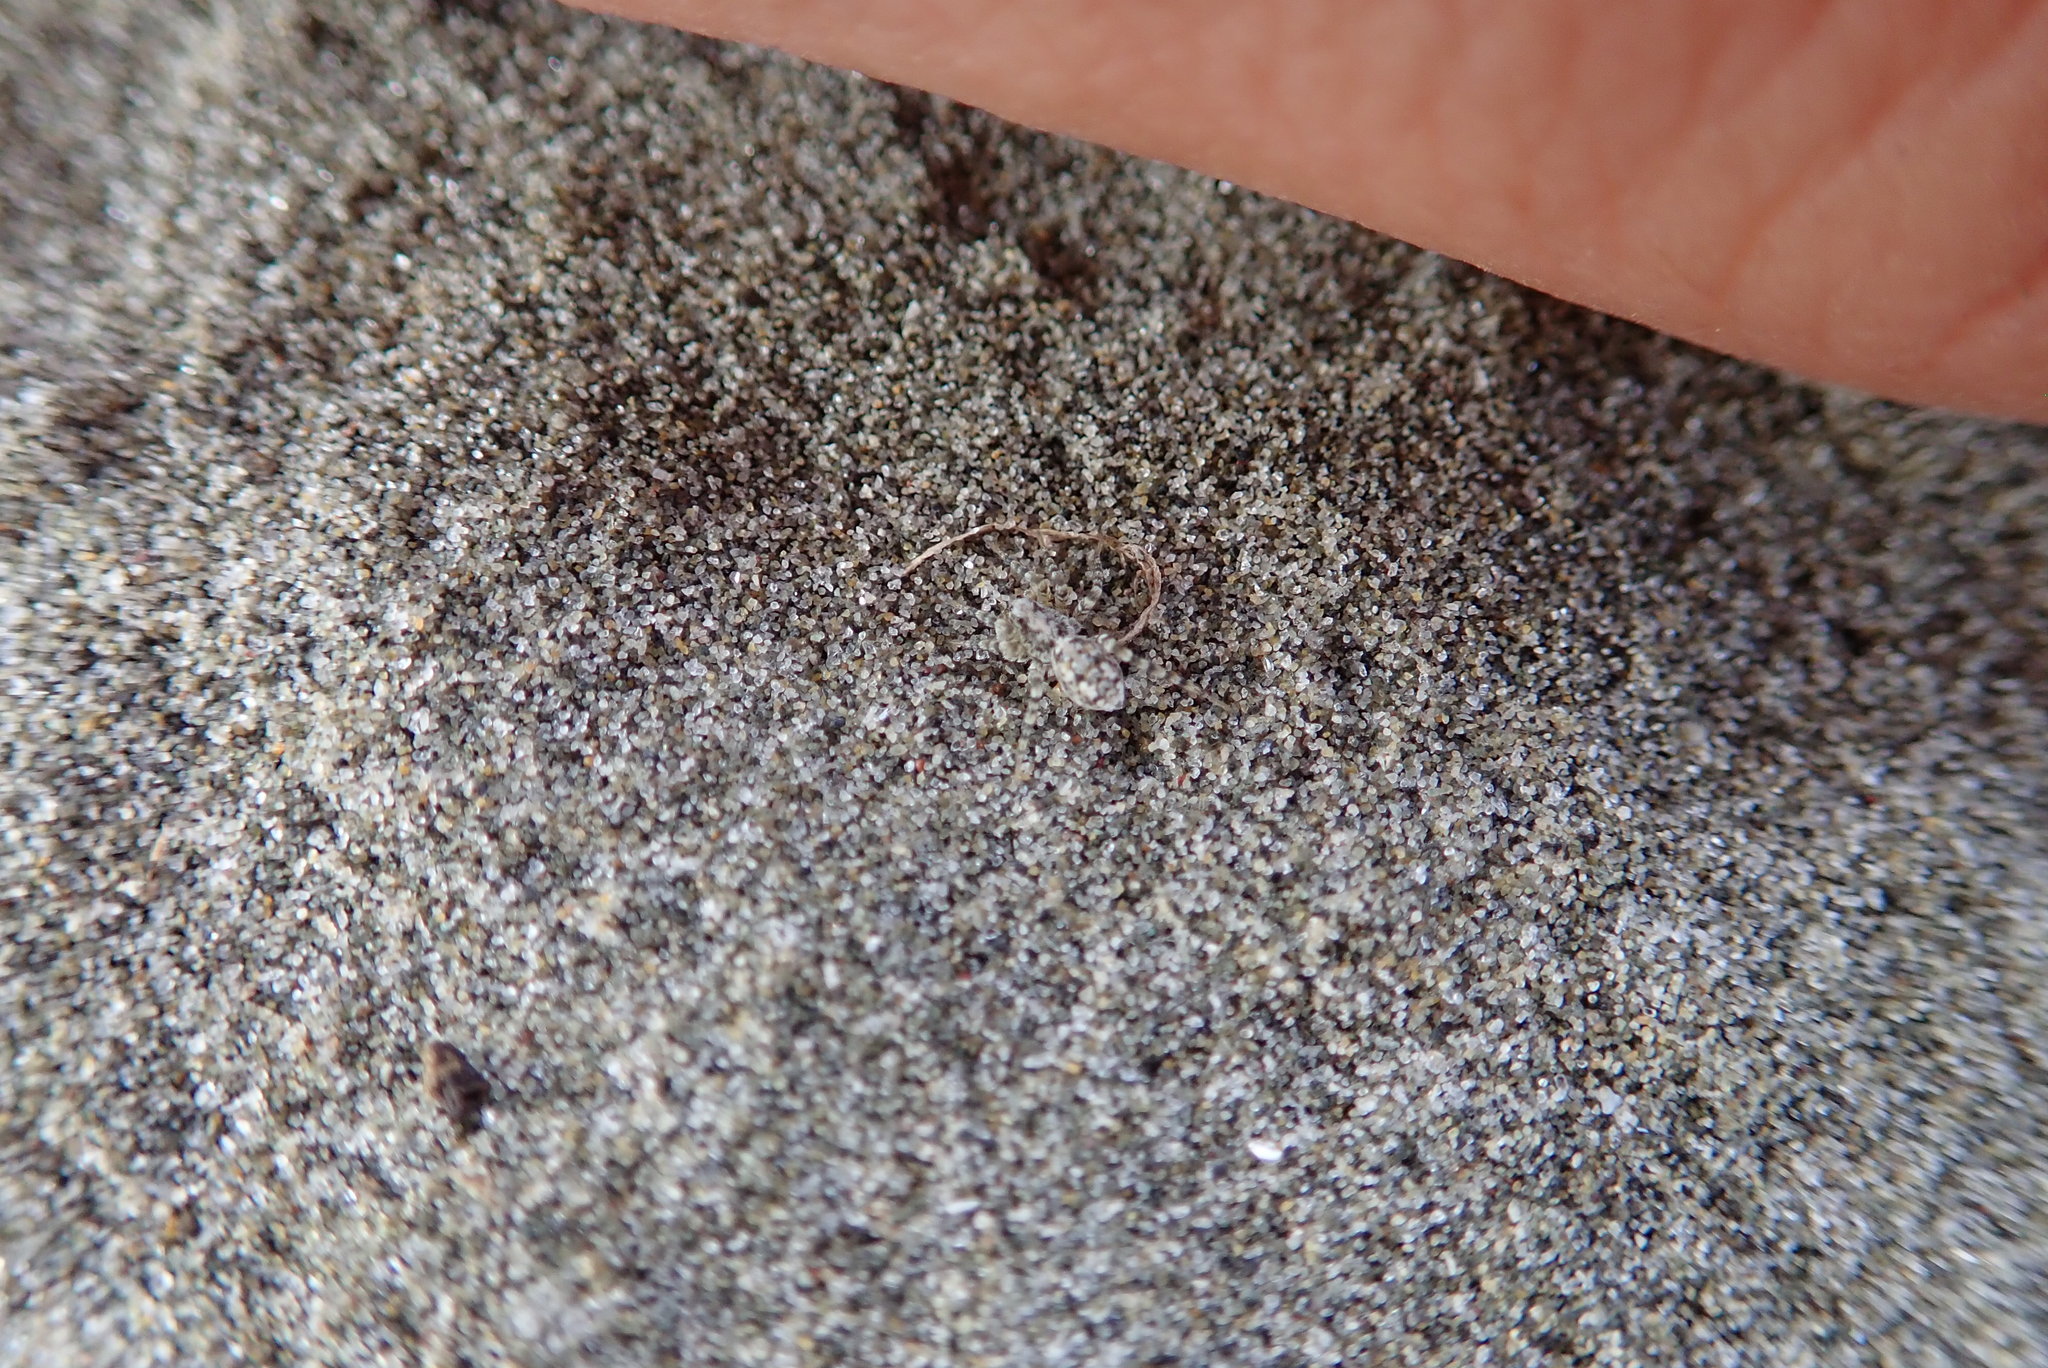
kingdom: Animalia
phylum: Arthropoda
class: Arachnida
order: Araneae
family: Lycosidae
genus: Anoteropsis
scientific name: Anoteropsis litoralis
